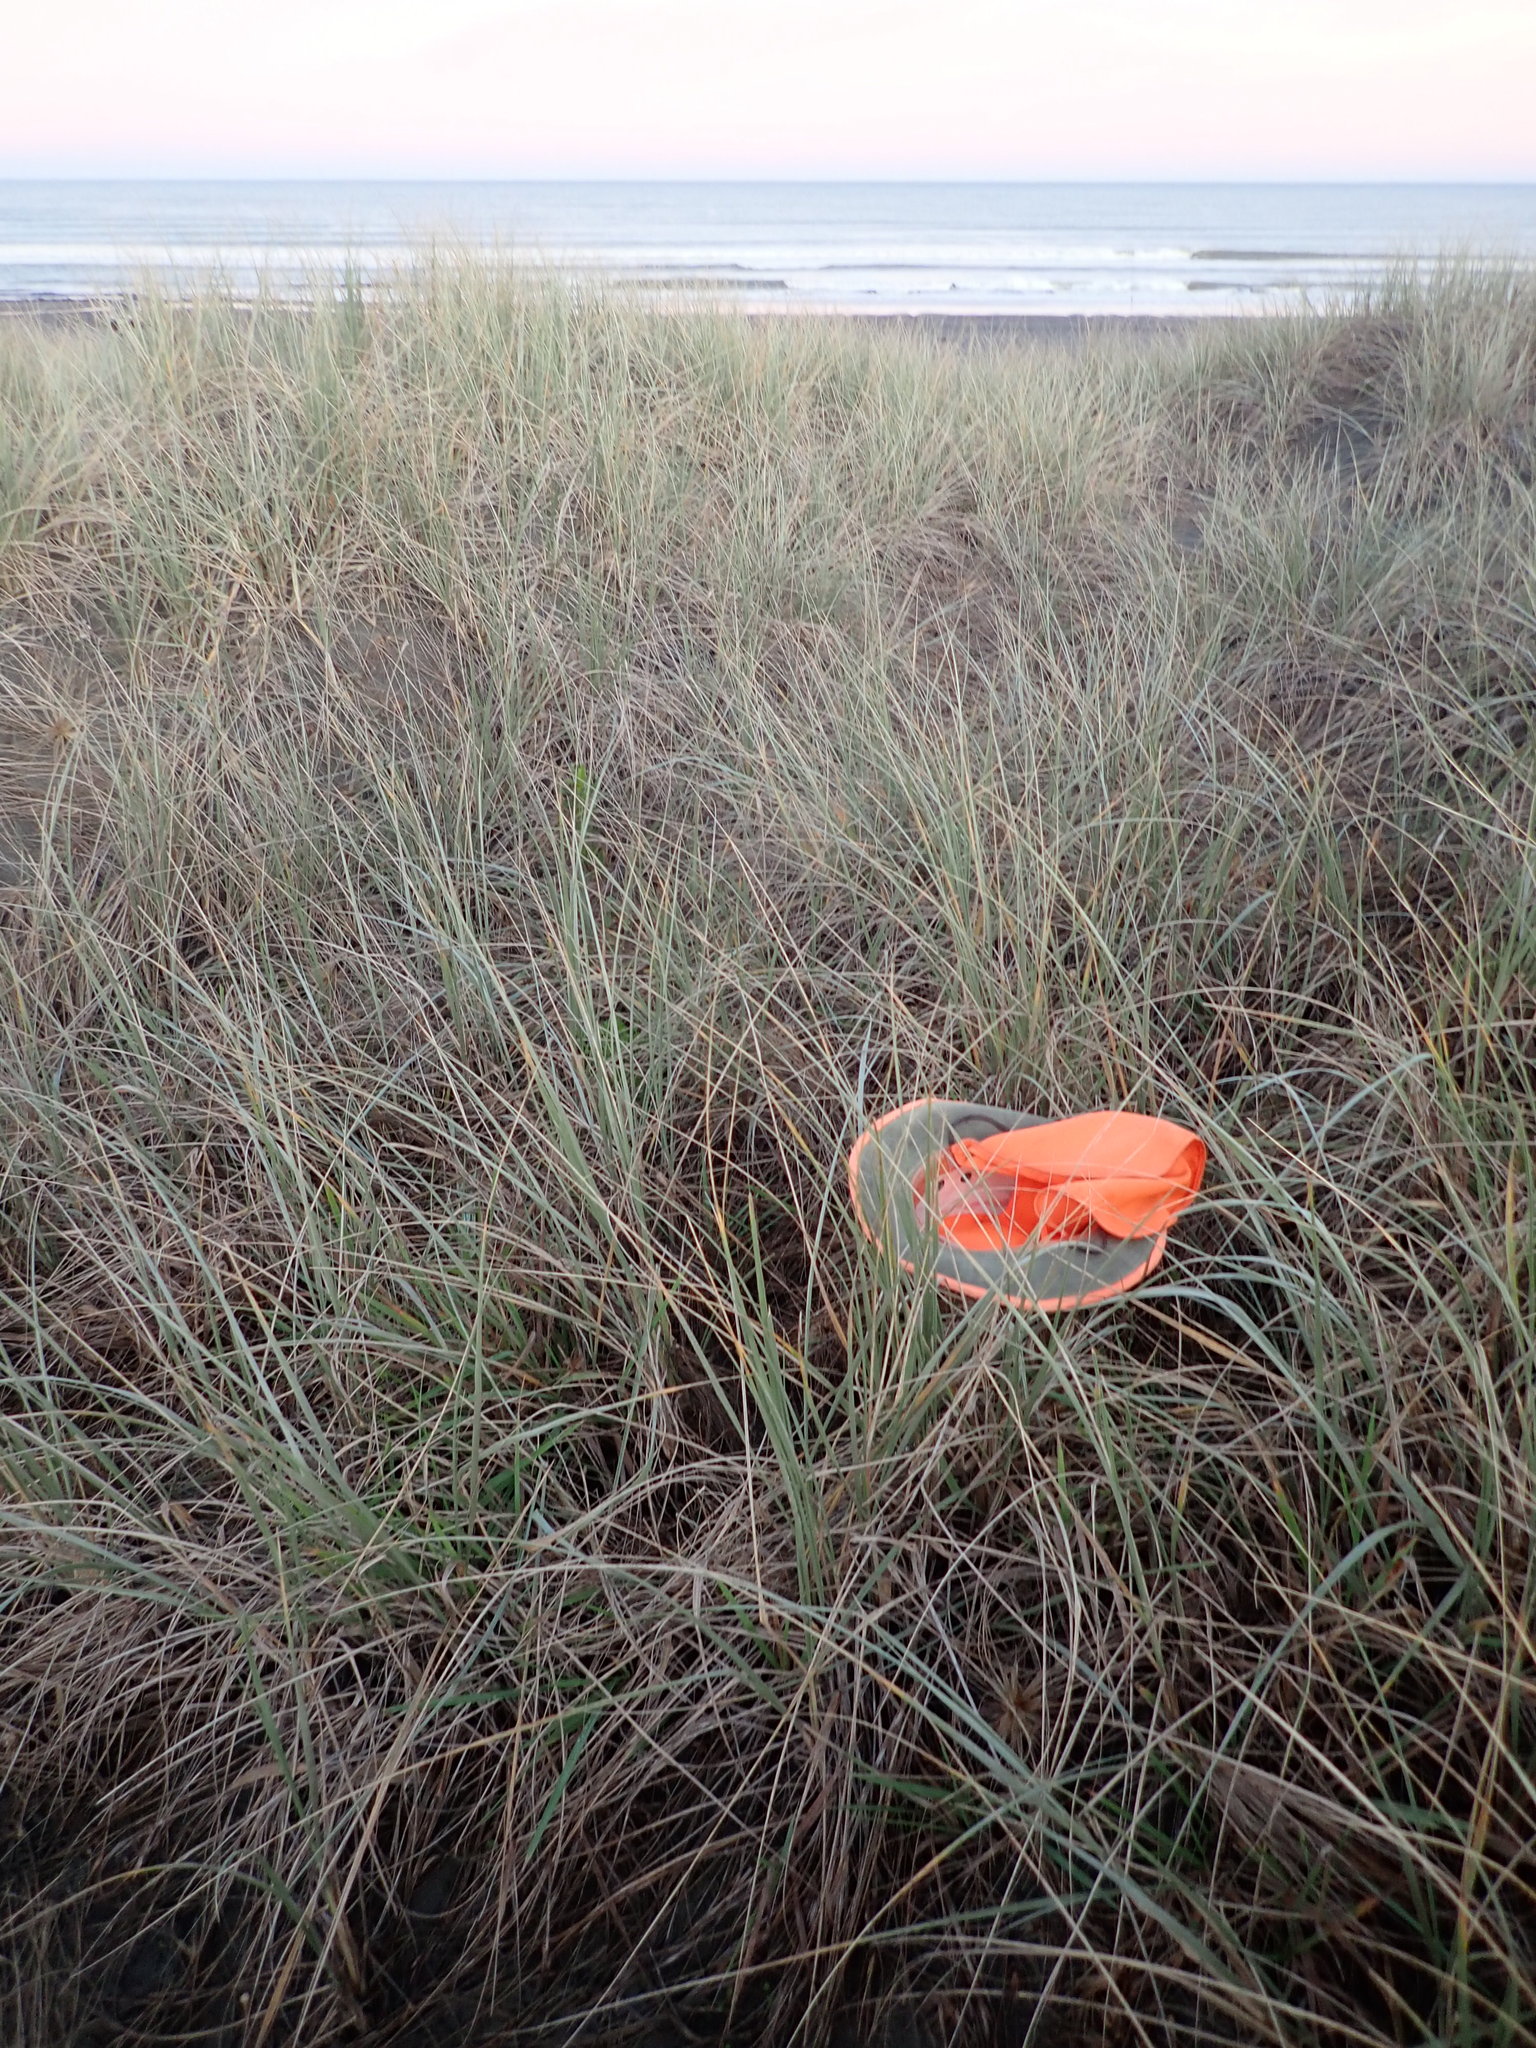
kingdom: Fungi
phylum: Basidiomycota
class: Agaricomycetes
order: Phallales
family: Phallaceae
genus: Ileodictyon
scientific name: Ileodictyon cibarium
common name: Basket fungus
